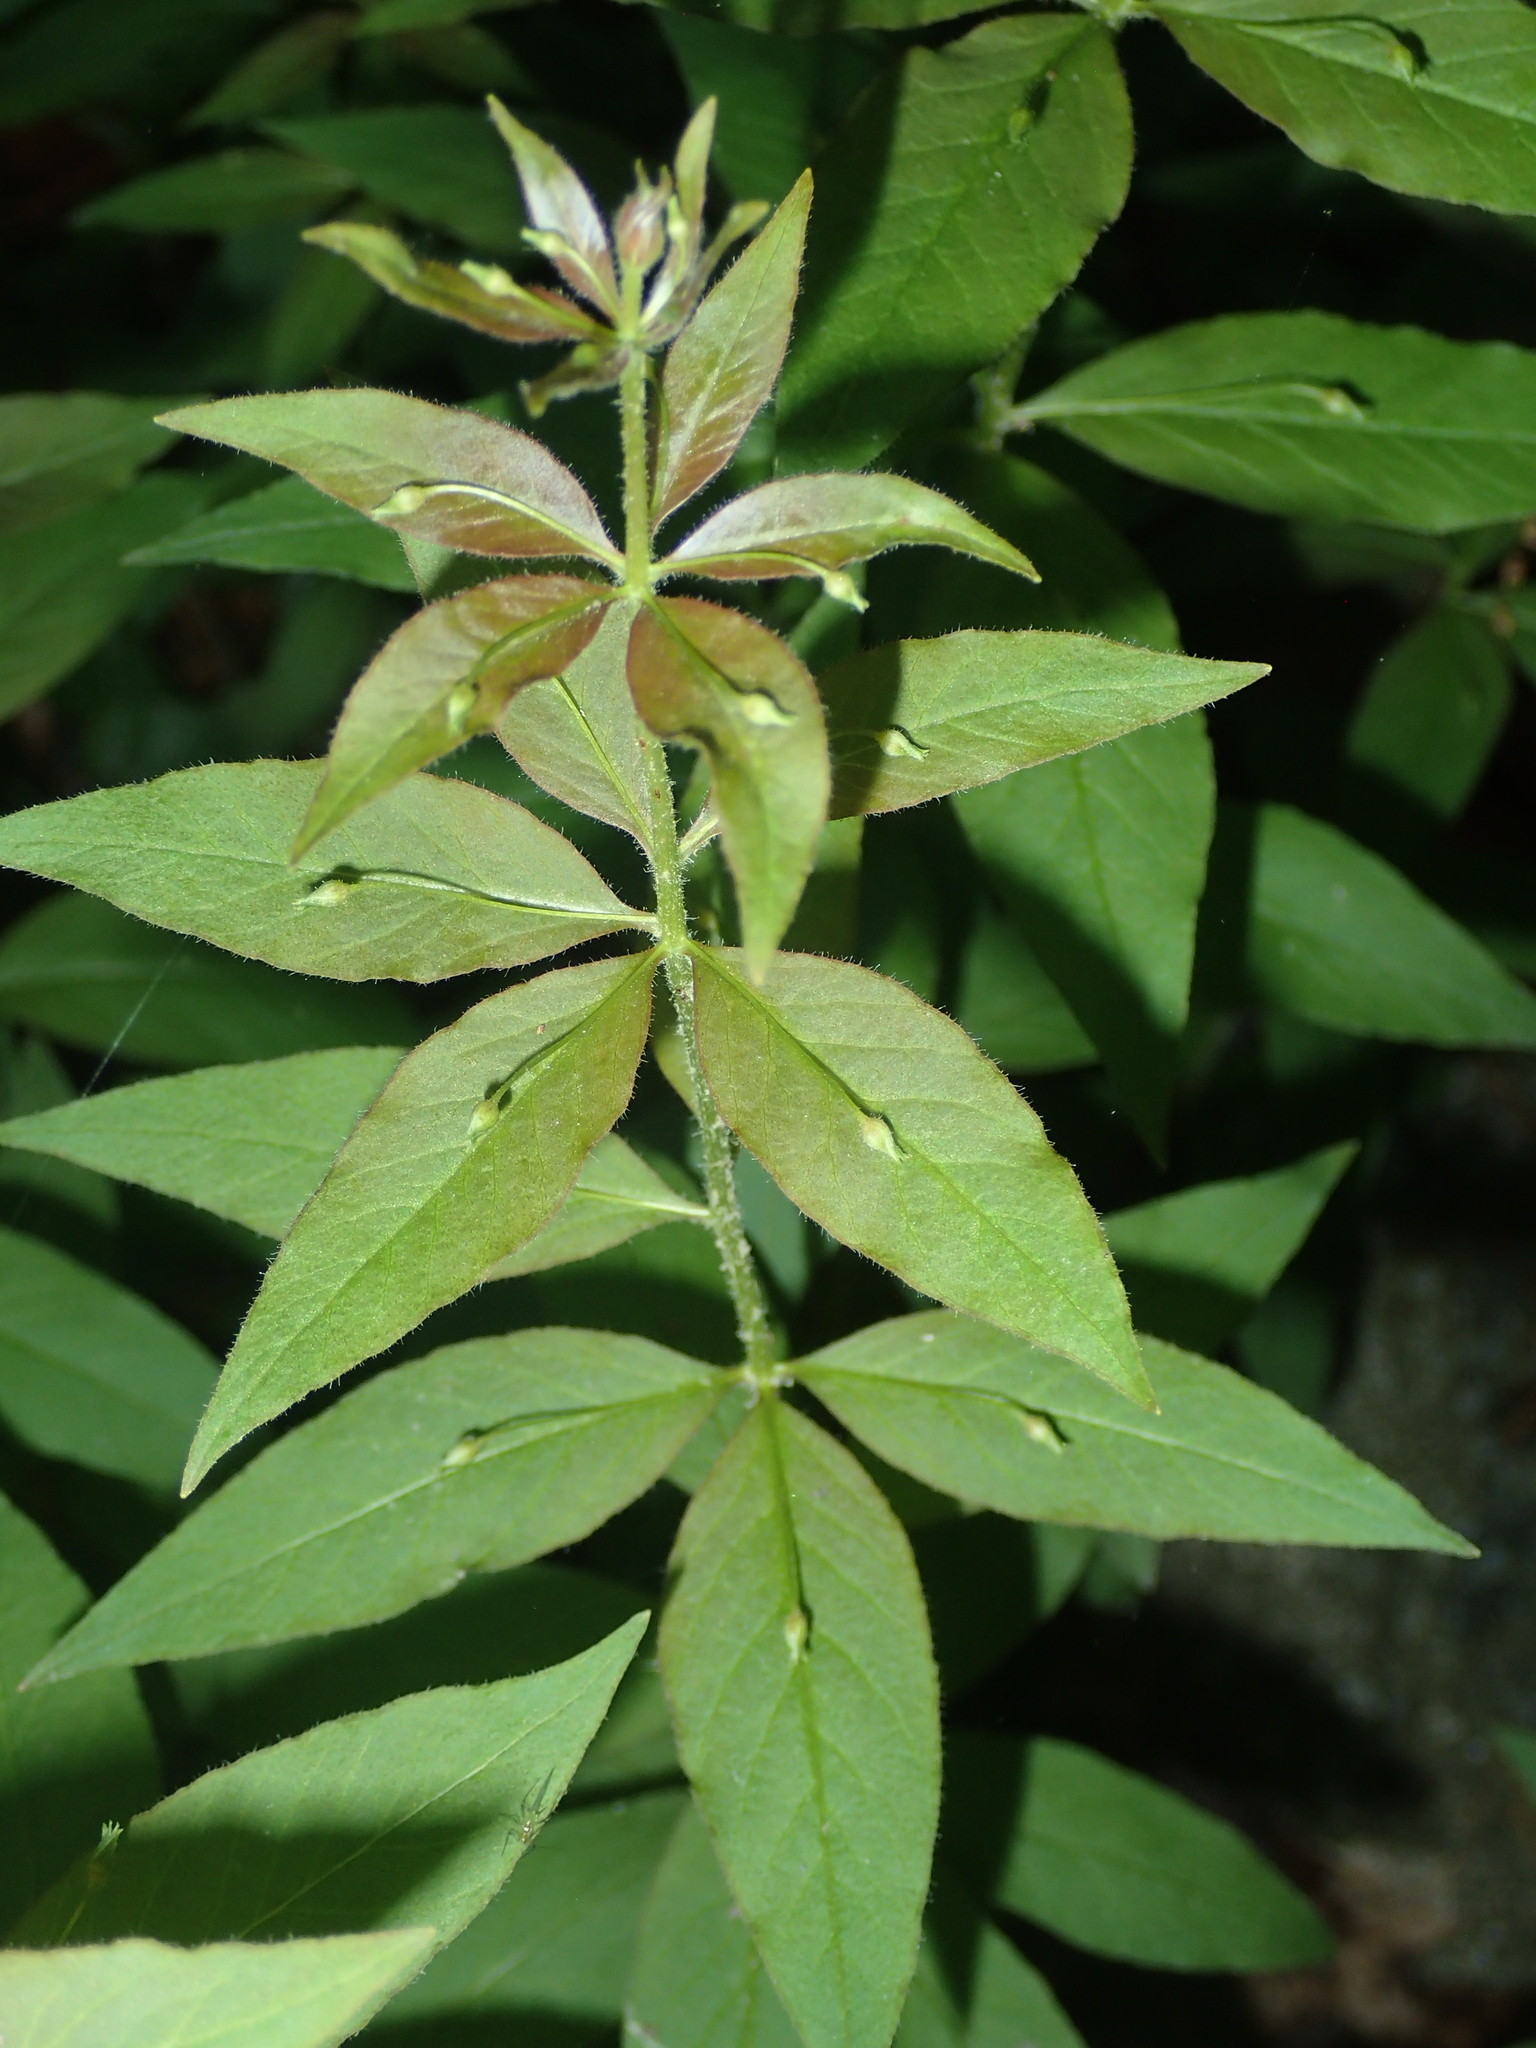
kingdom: Plantae
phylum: Tracheophyta
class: Magnoliopsida
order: Ericales
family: Primulaceae
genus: Lysimachia
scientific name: Lysimachia quadrifolia
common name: Whorled loosestrife
